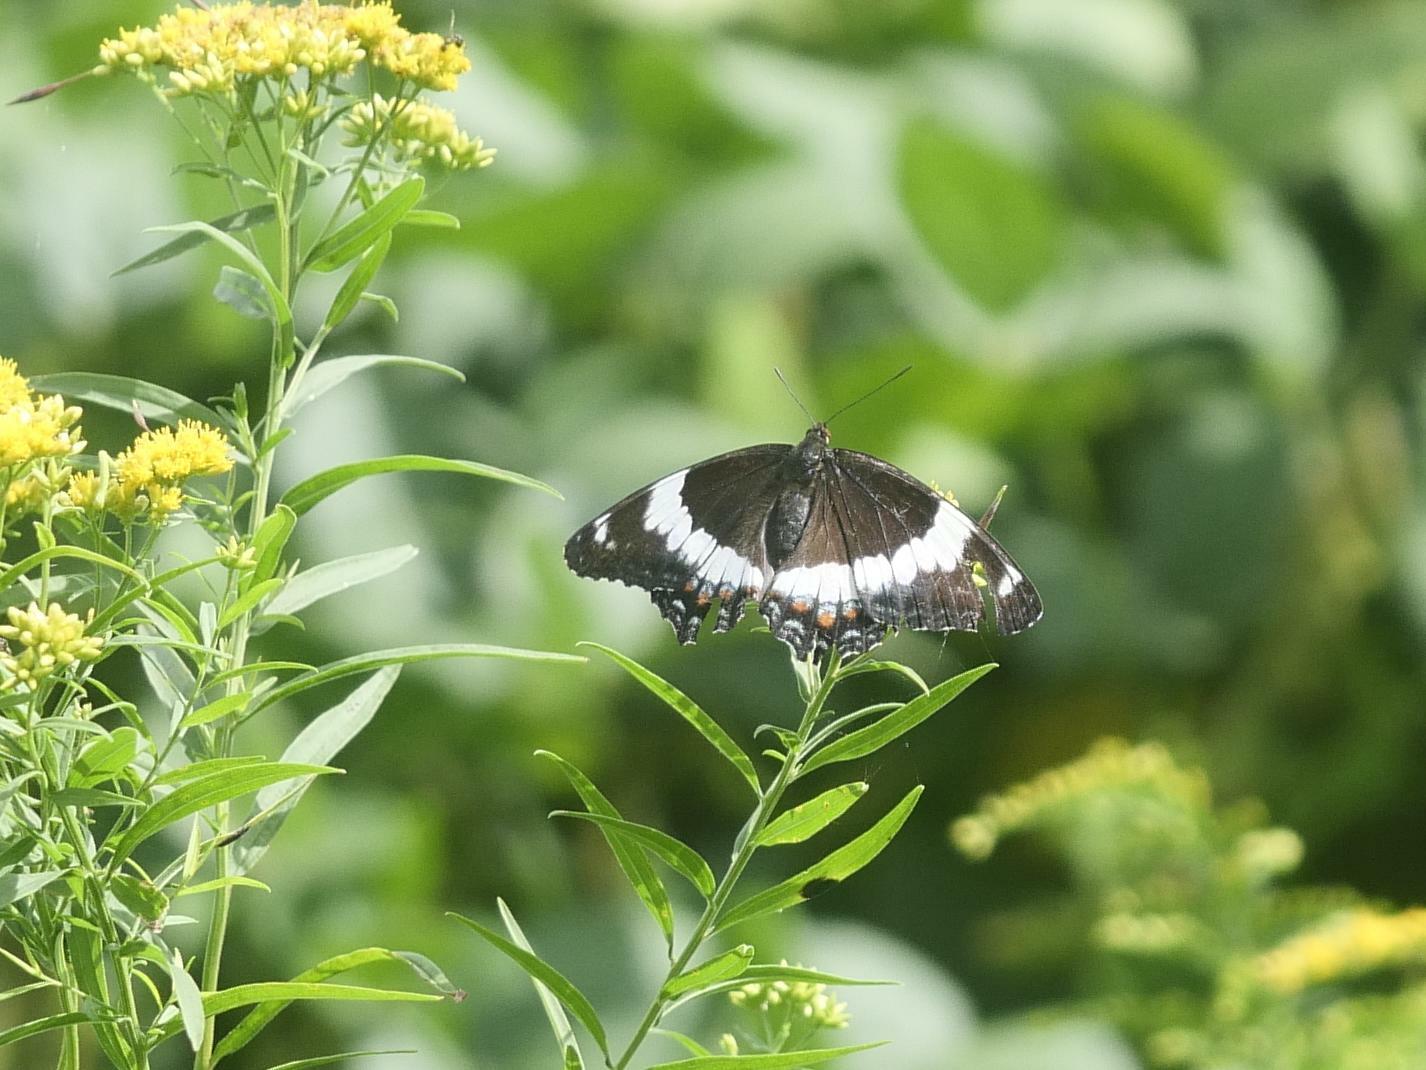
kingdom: Animalia
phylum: Arthropoda
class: Insecta
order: Lepidoptera
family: Nymphalidae
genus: Limenitis
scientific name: Limenitis arthemis
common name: Red-spotted admiral
